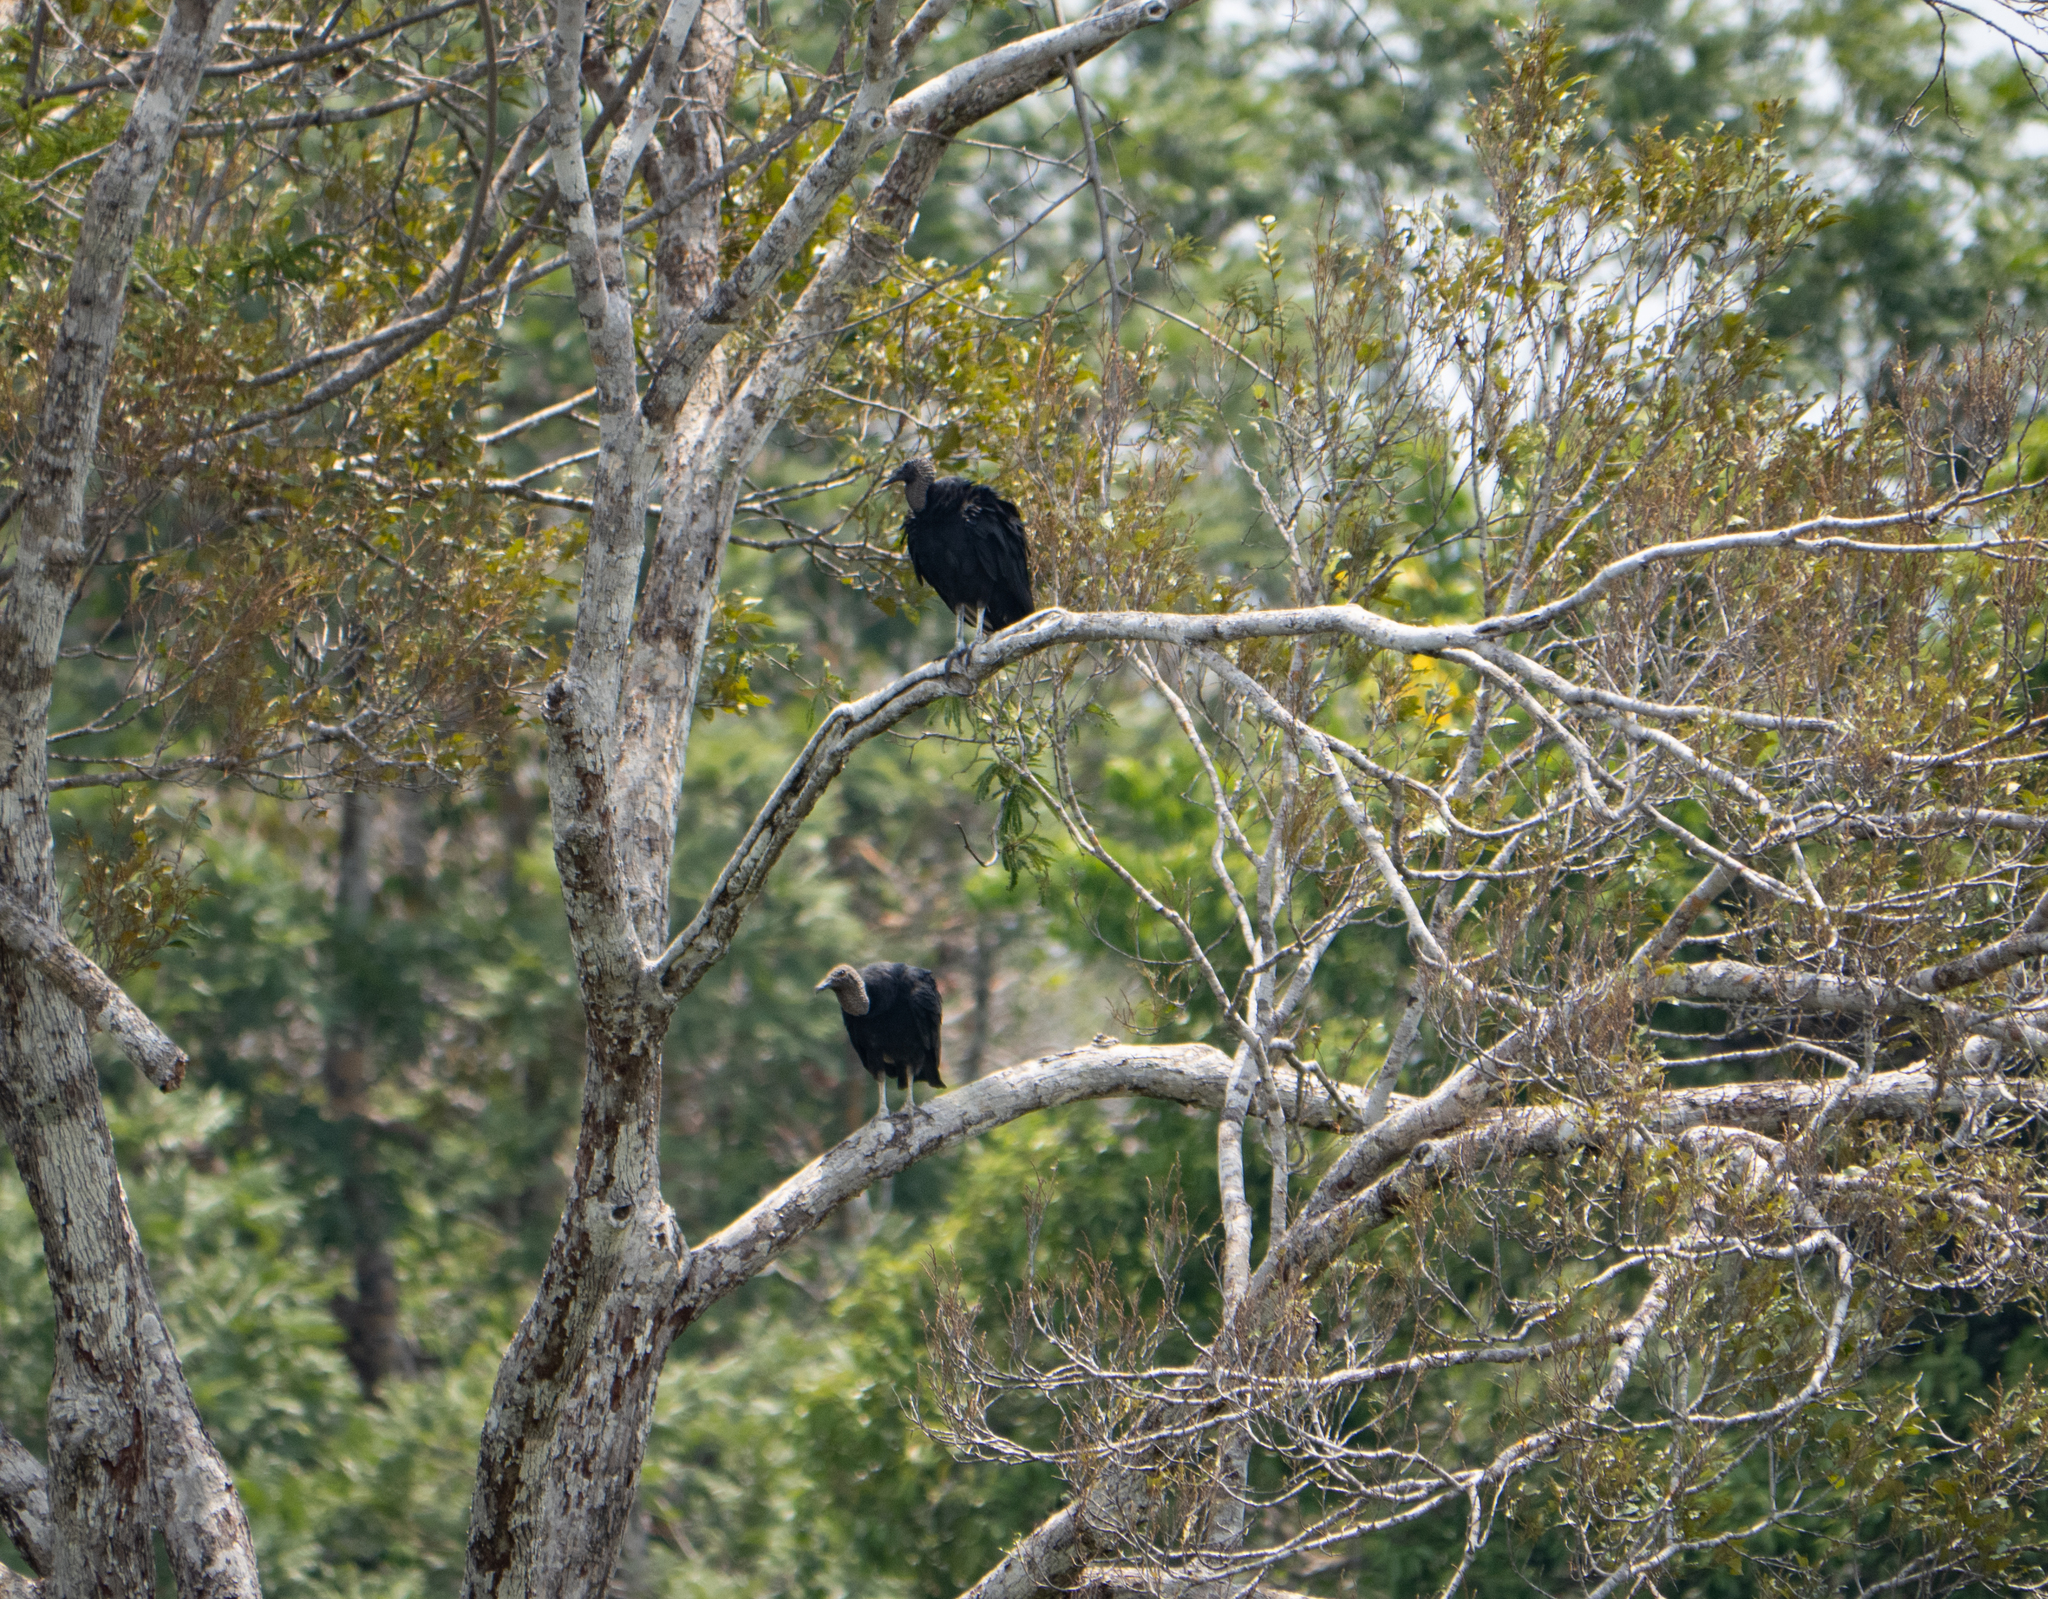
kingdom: Animalia
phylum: Chordata
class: Aves
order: Accipitriformes
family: Cathartidae
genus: Coragyps
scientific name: Coragyps atratus
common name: Black vulture
